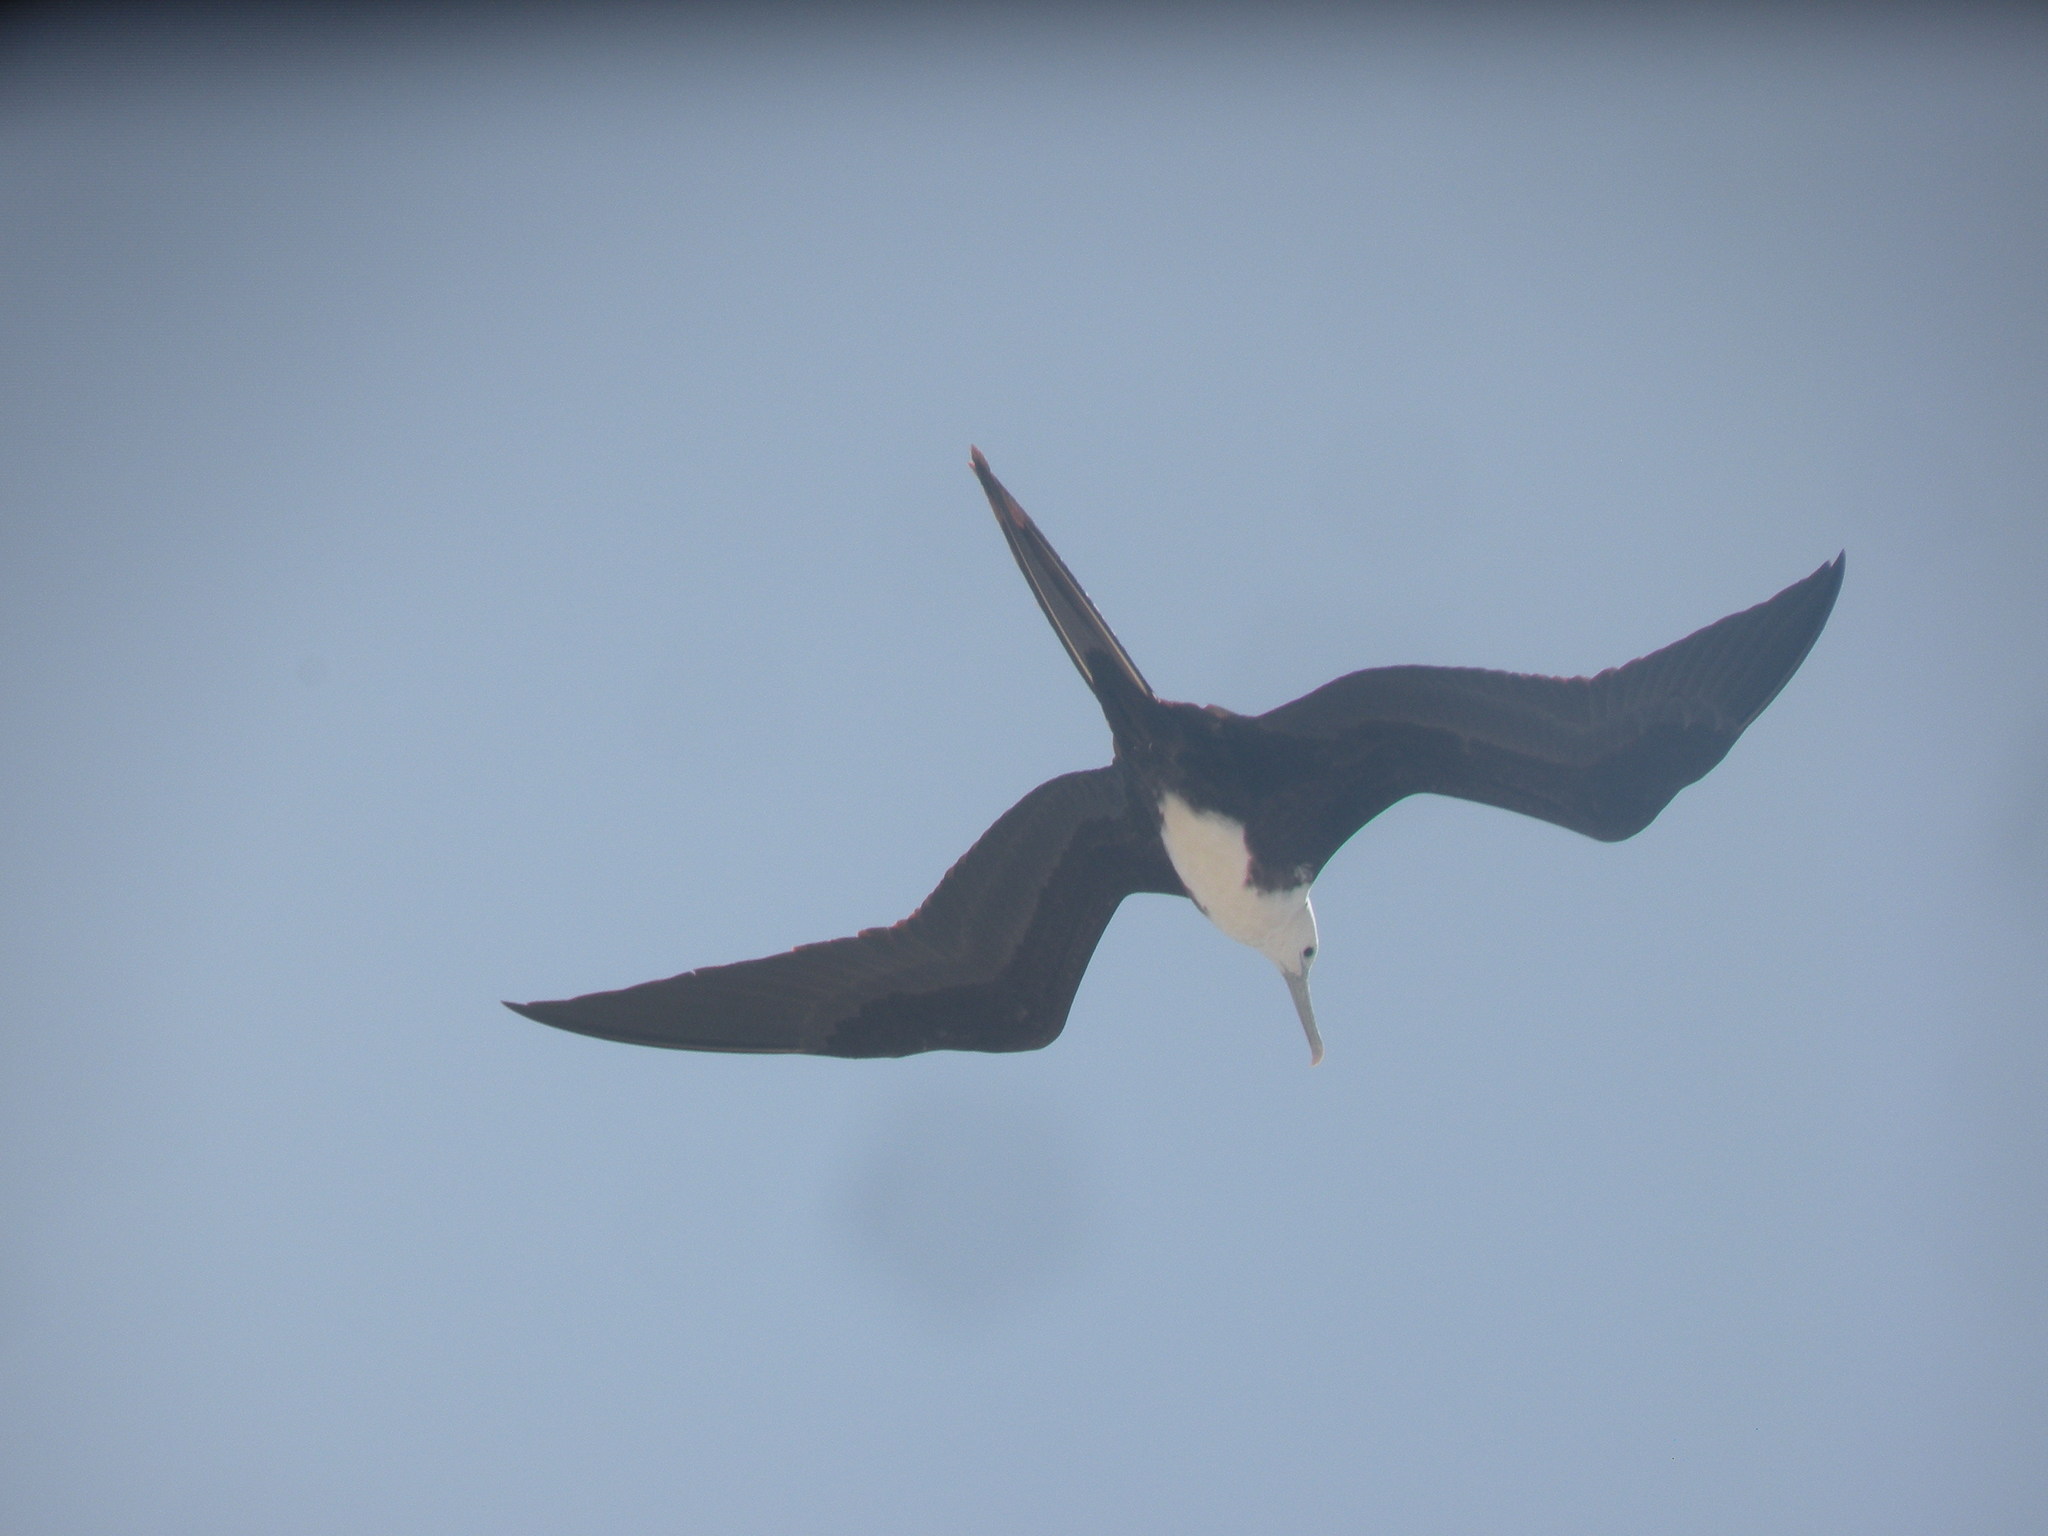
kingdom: Animalia
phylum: Chordata
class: Aves
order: Suliformes
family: Fregatidae
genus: Fregata
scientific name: Fregata magnificens
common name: Magnificent frigatebird
